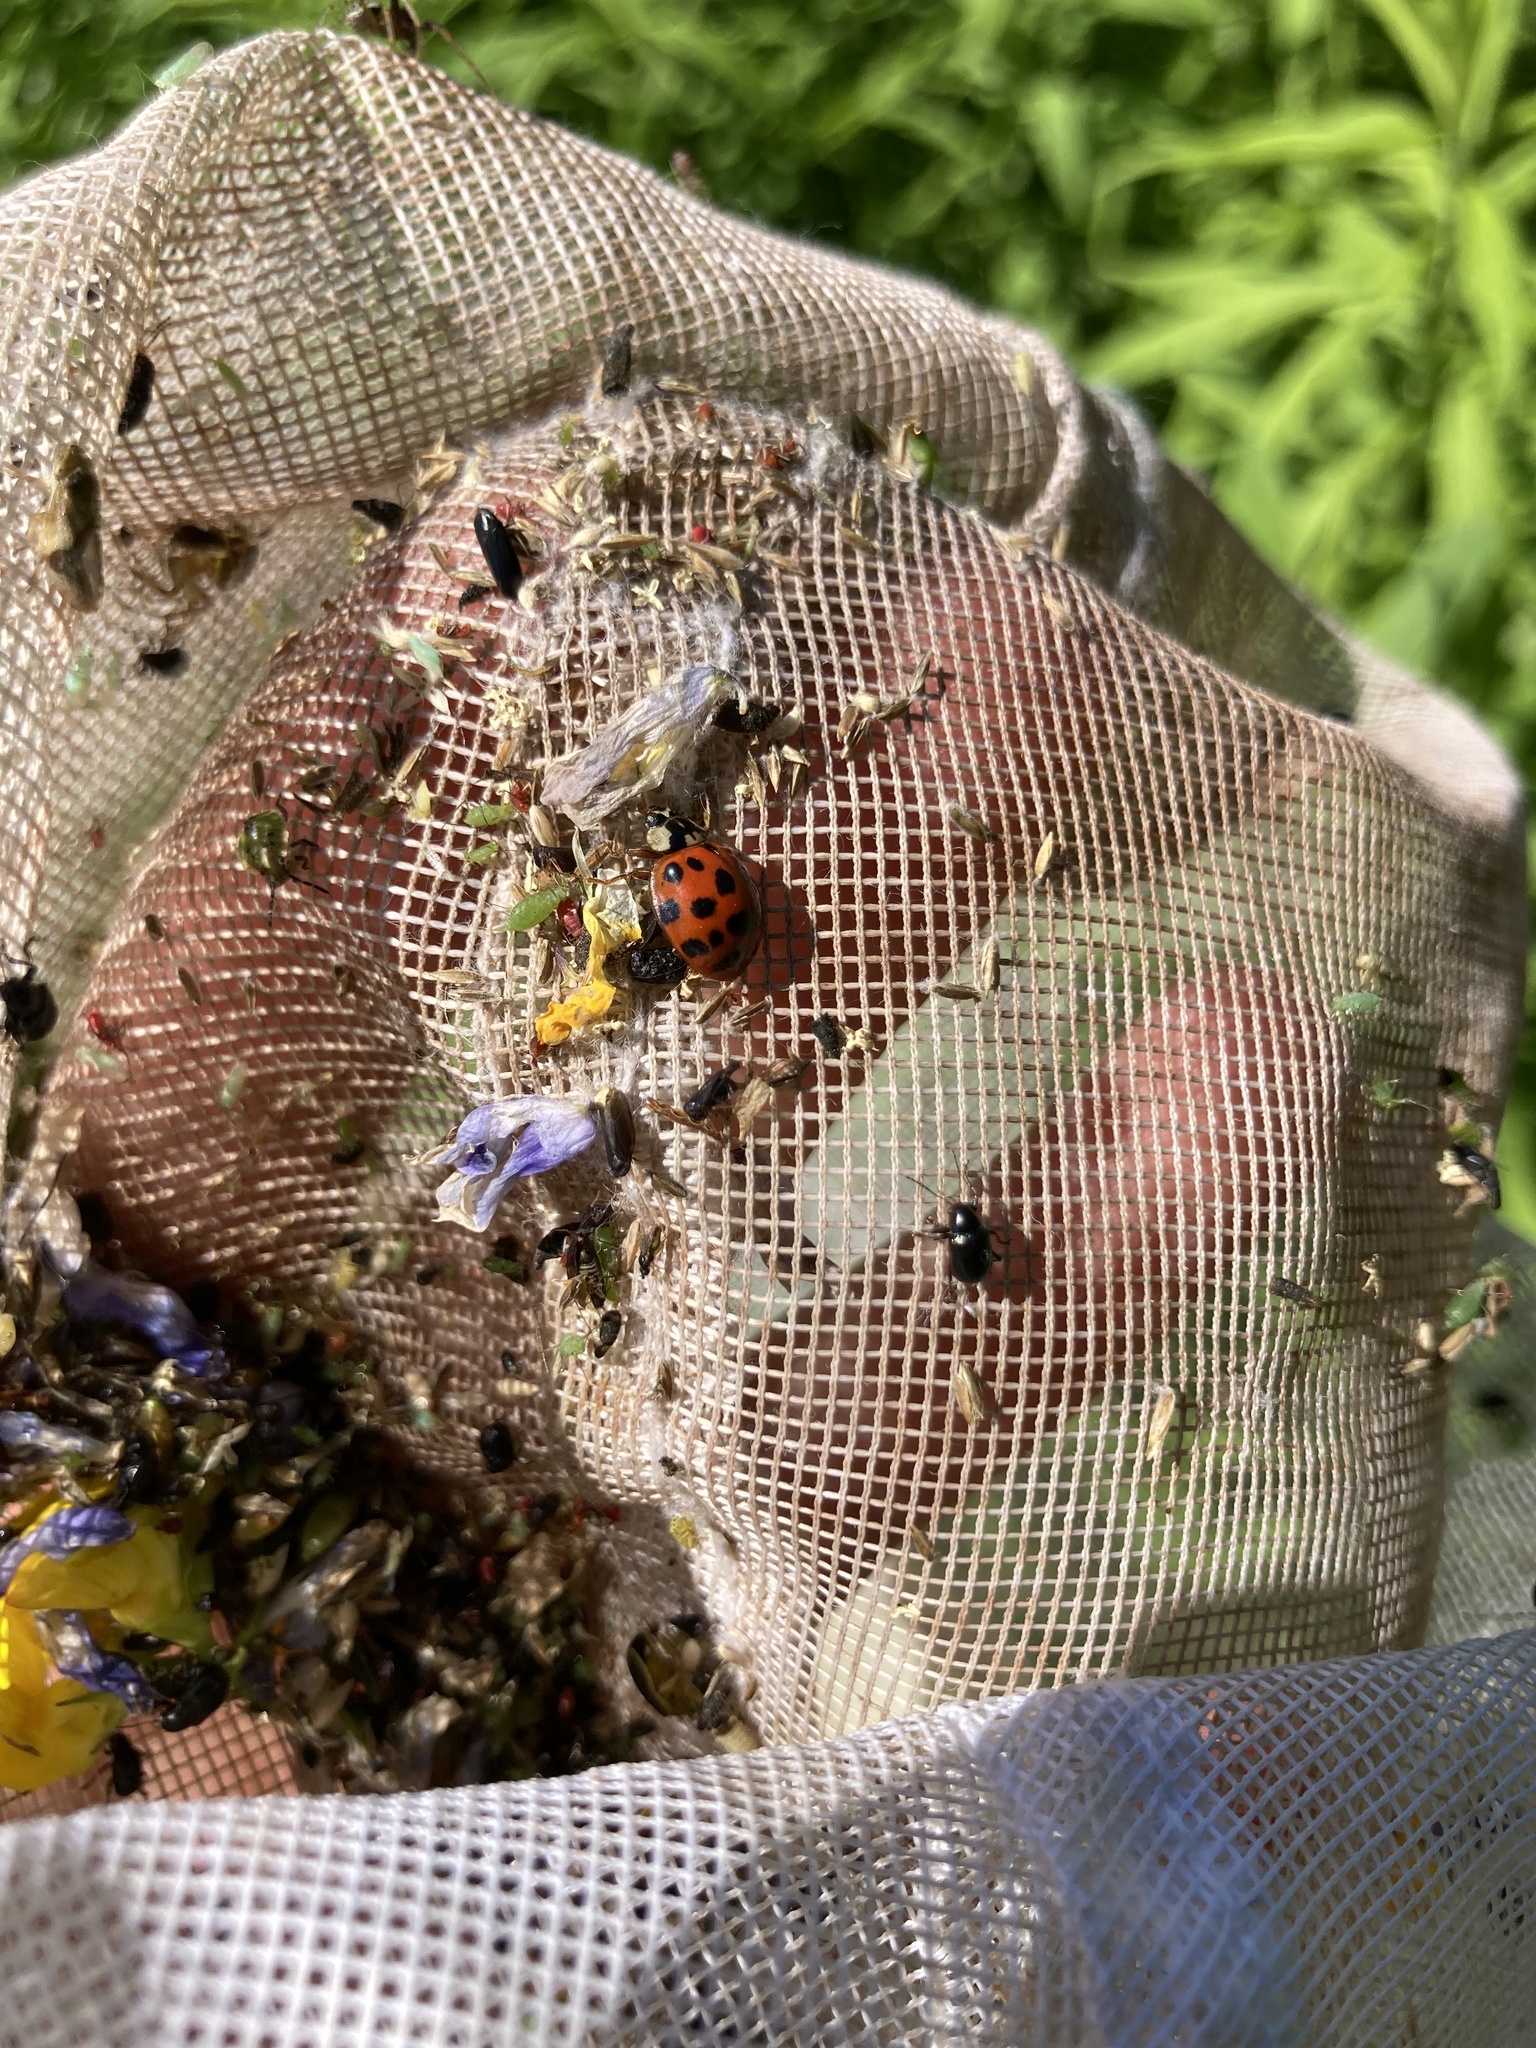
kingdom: Animalia
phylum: Arthropoda
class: Insecta
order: Coleoptera
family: Coccinellidae
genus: Harmonia
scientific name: Harmonia axyridis
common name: Harlequin ladybird
